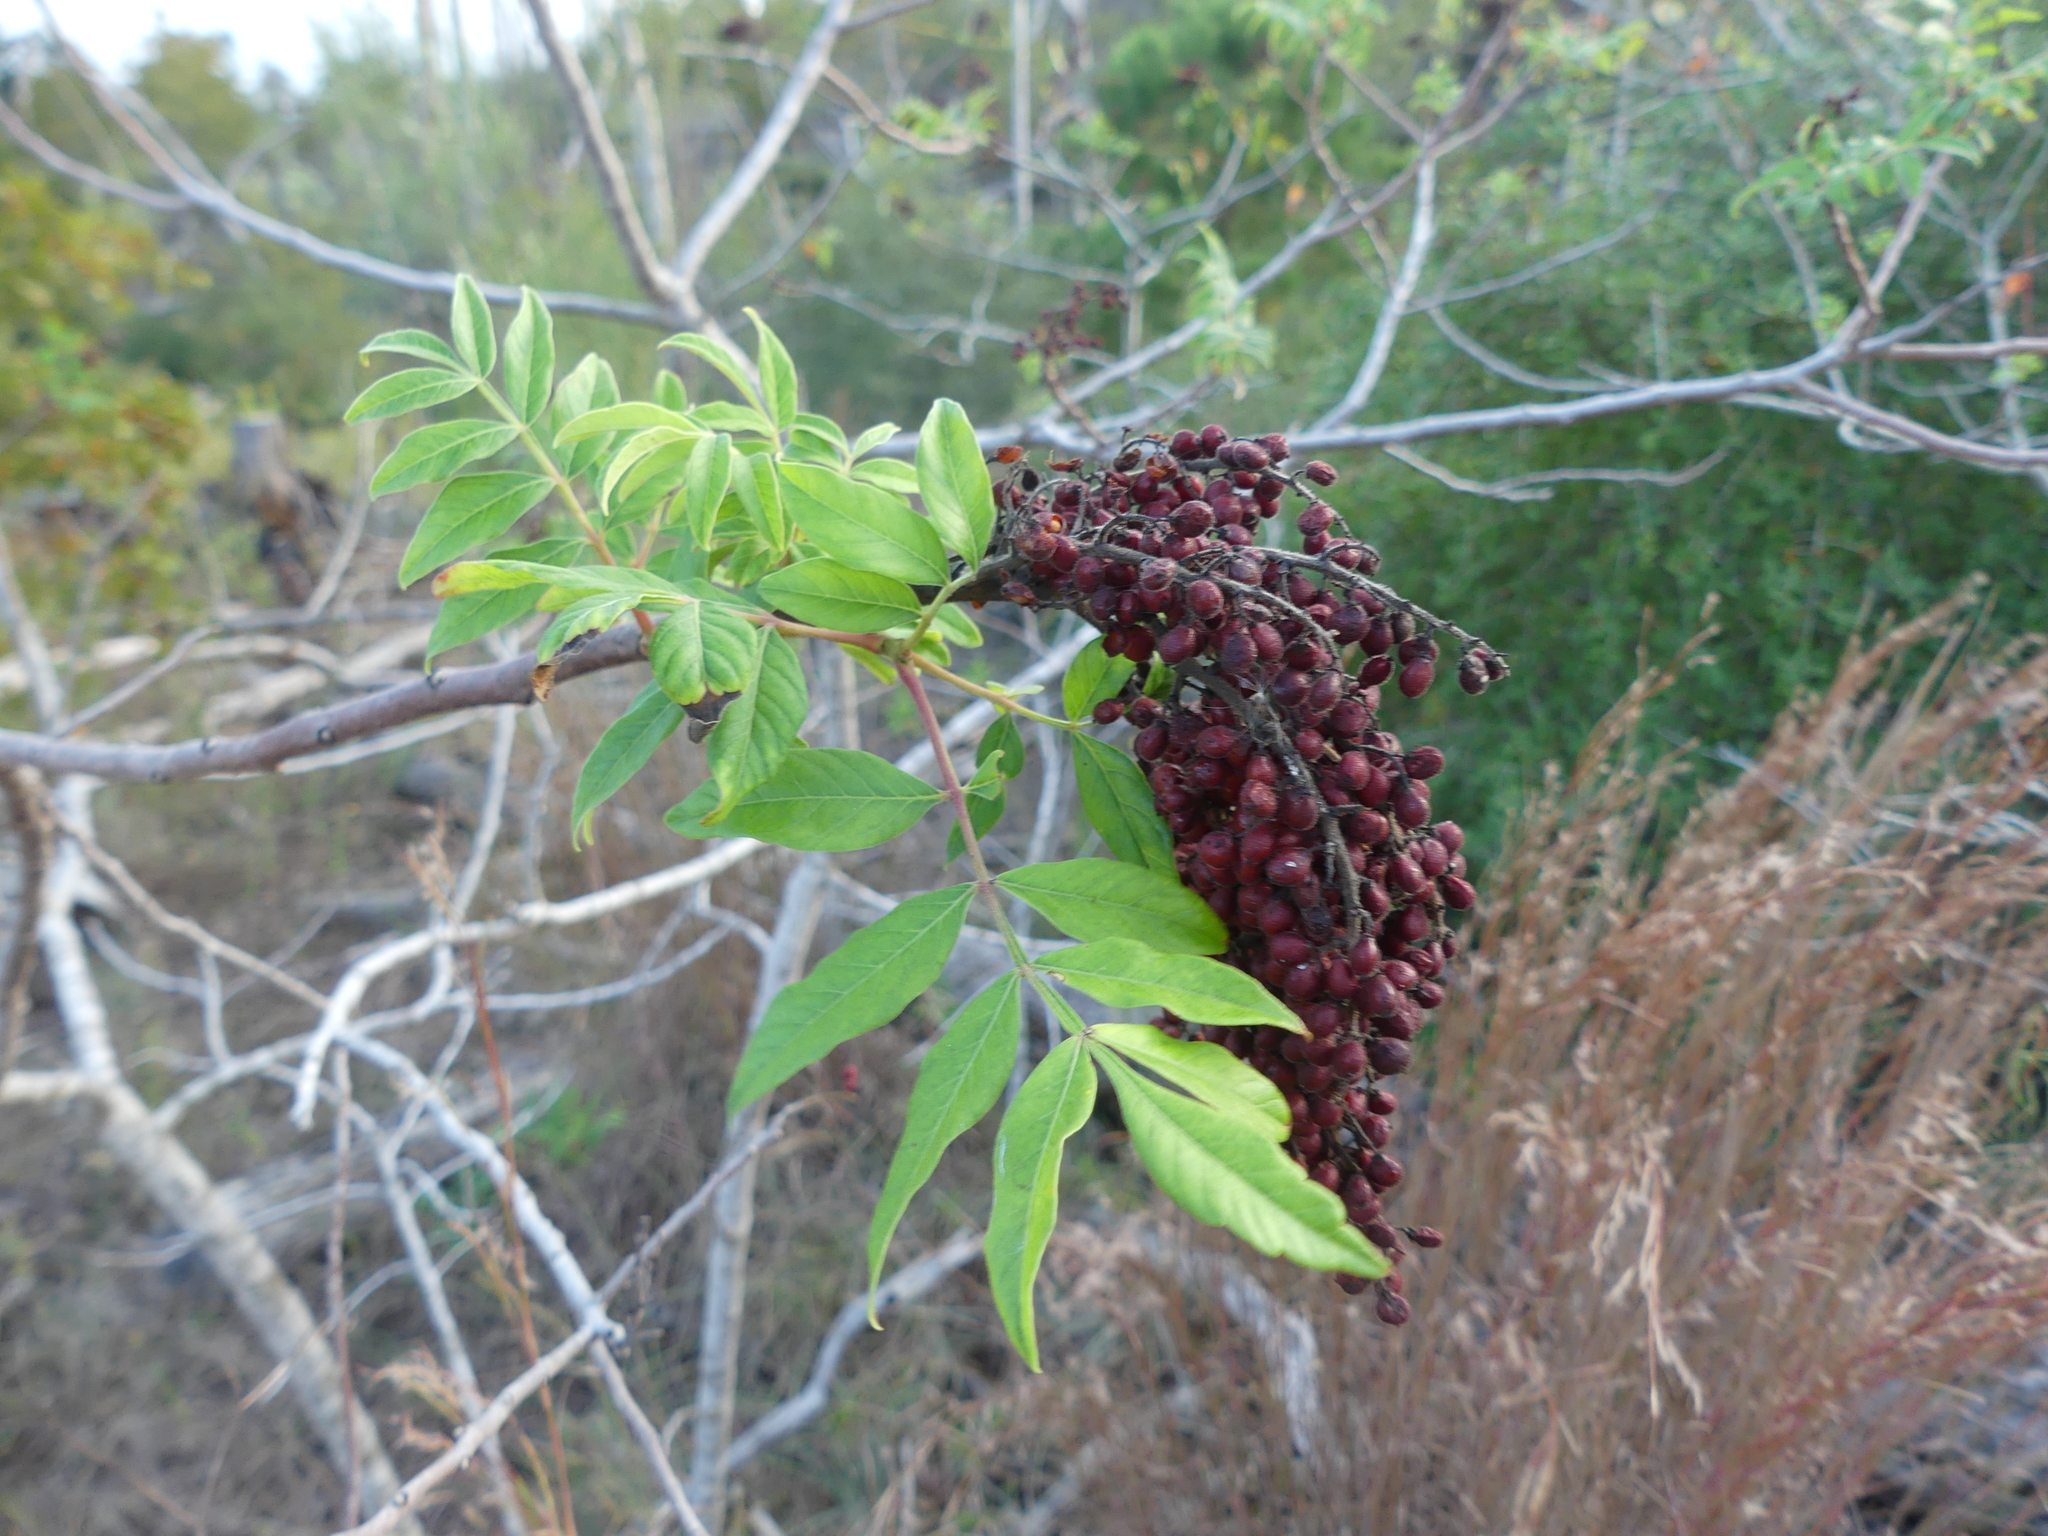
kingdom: Plantae
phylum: Tracheophyta
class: Magnoliopsida
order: Sapindales
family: Anacardiaceae
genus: Rhus
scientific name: Rhus lanceolata
